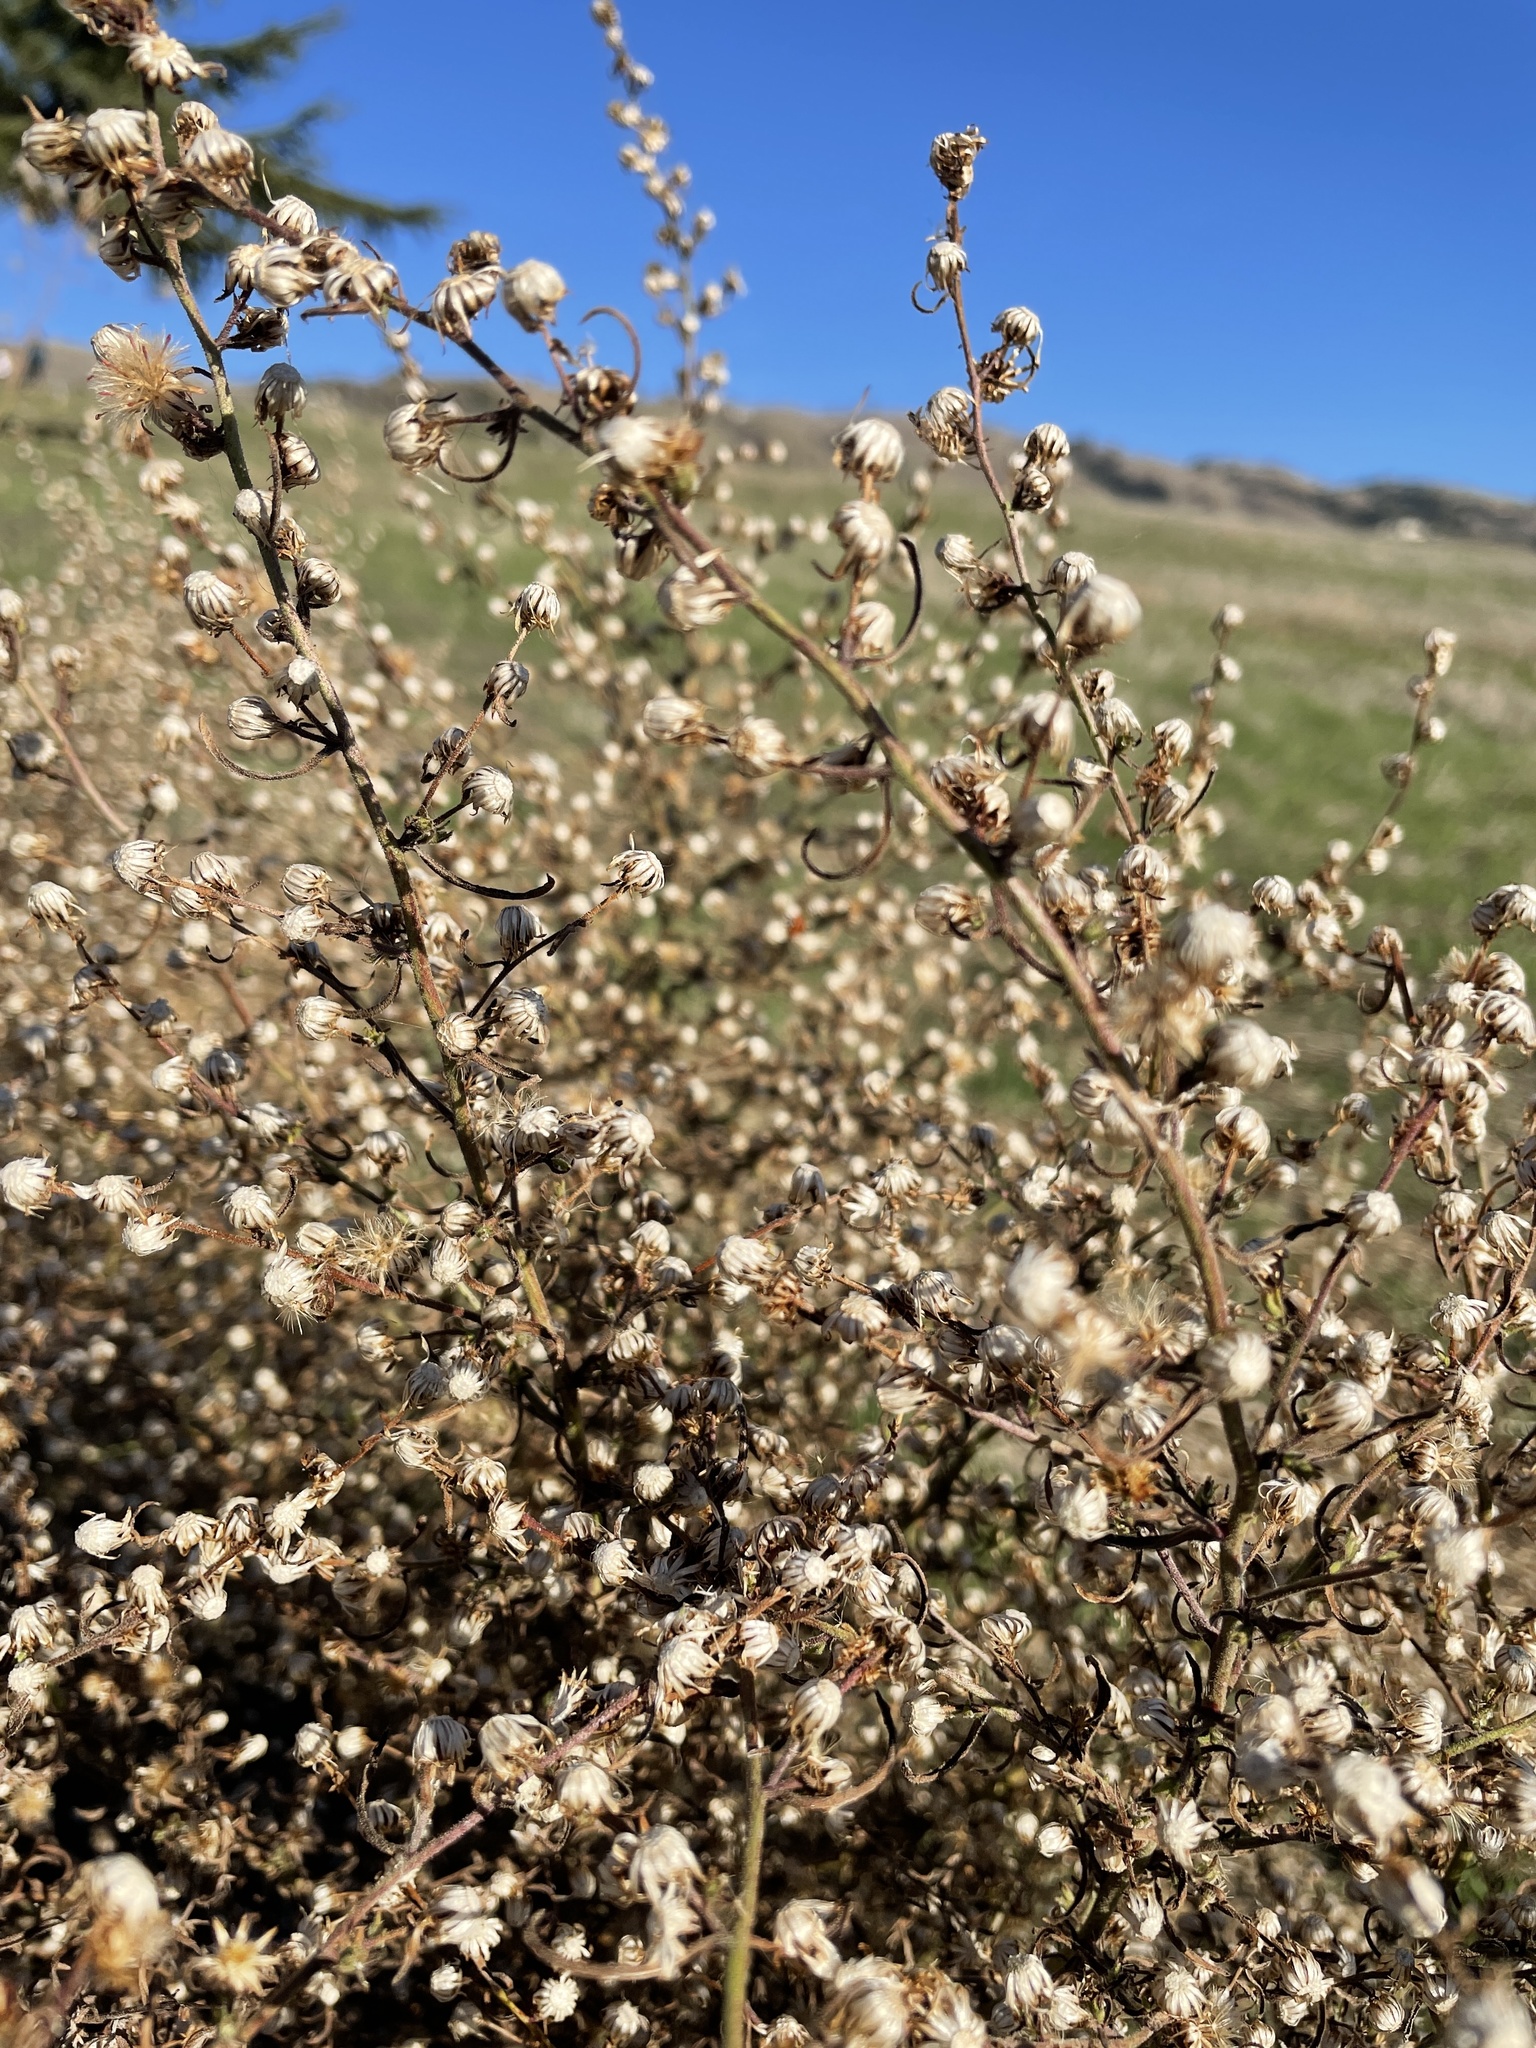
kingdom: Plantae
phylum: Tracheophyta
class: Magnoliopsida
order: Asterales
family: Asteraceae
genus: Dittrichia
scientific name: Dittrichia graveolens
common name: Stinking fleabane
